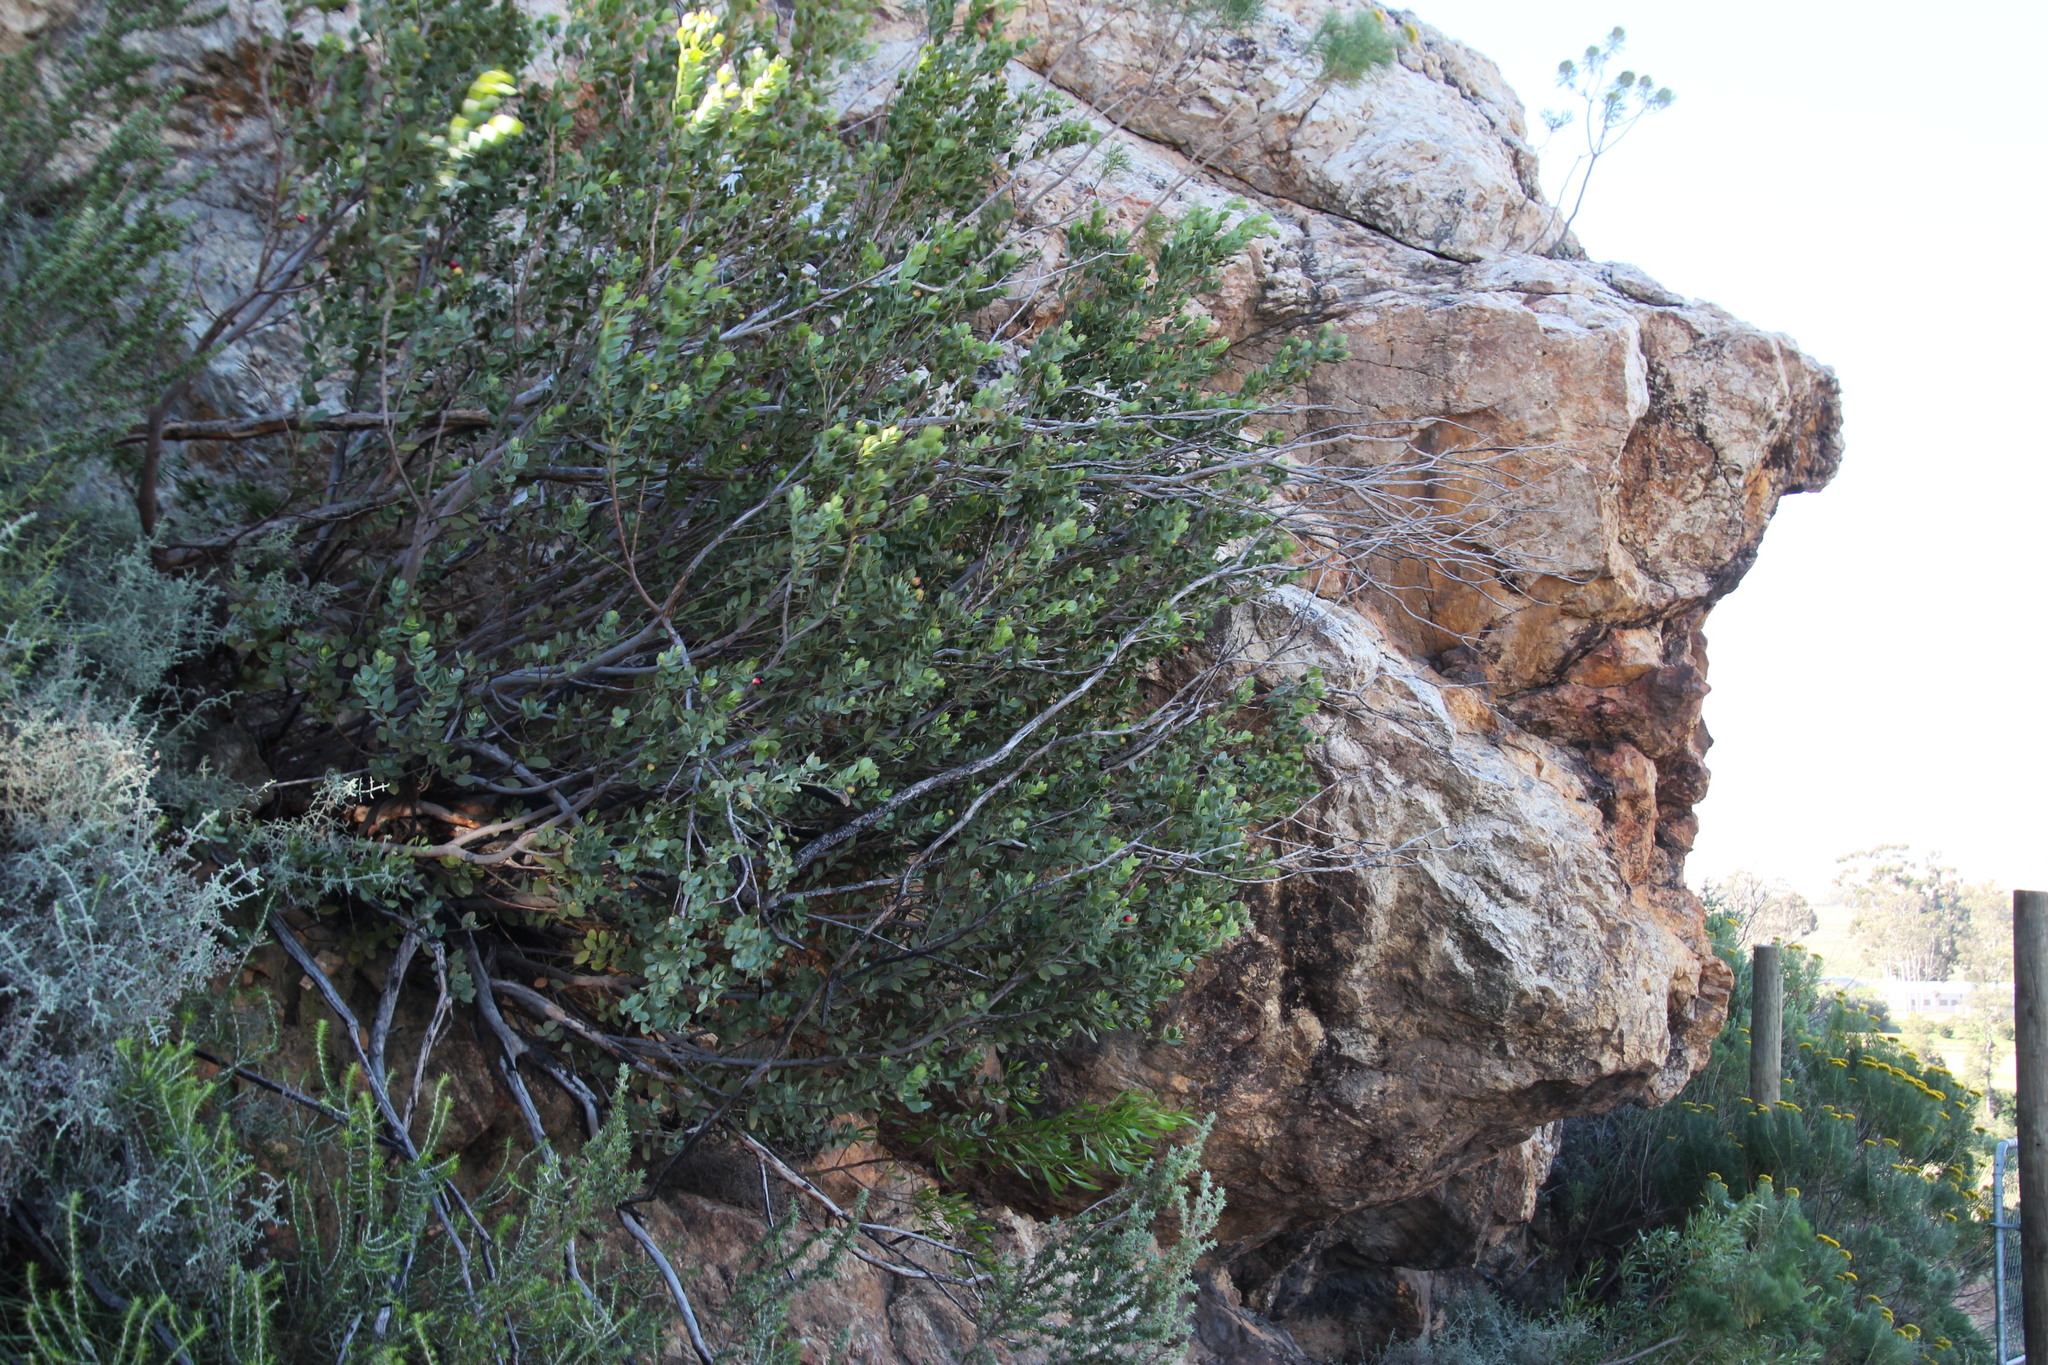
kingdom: Plantae
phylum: Tracheophyta
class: Magnoliopsida
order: Santalales
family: Santalaceae
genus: Osyris
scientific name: Osyris compressa
